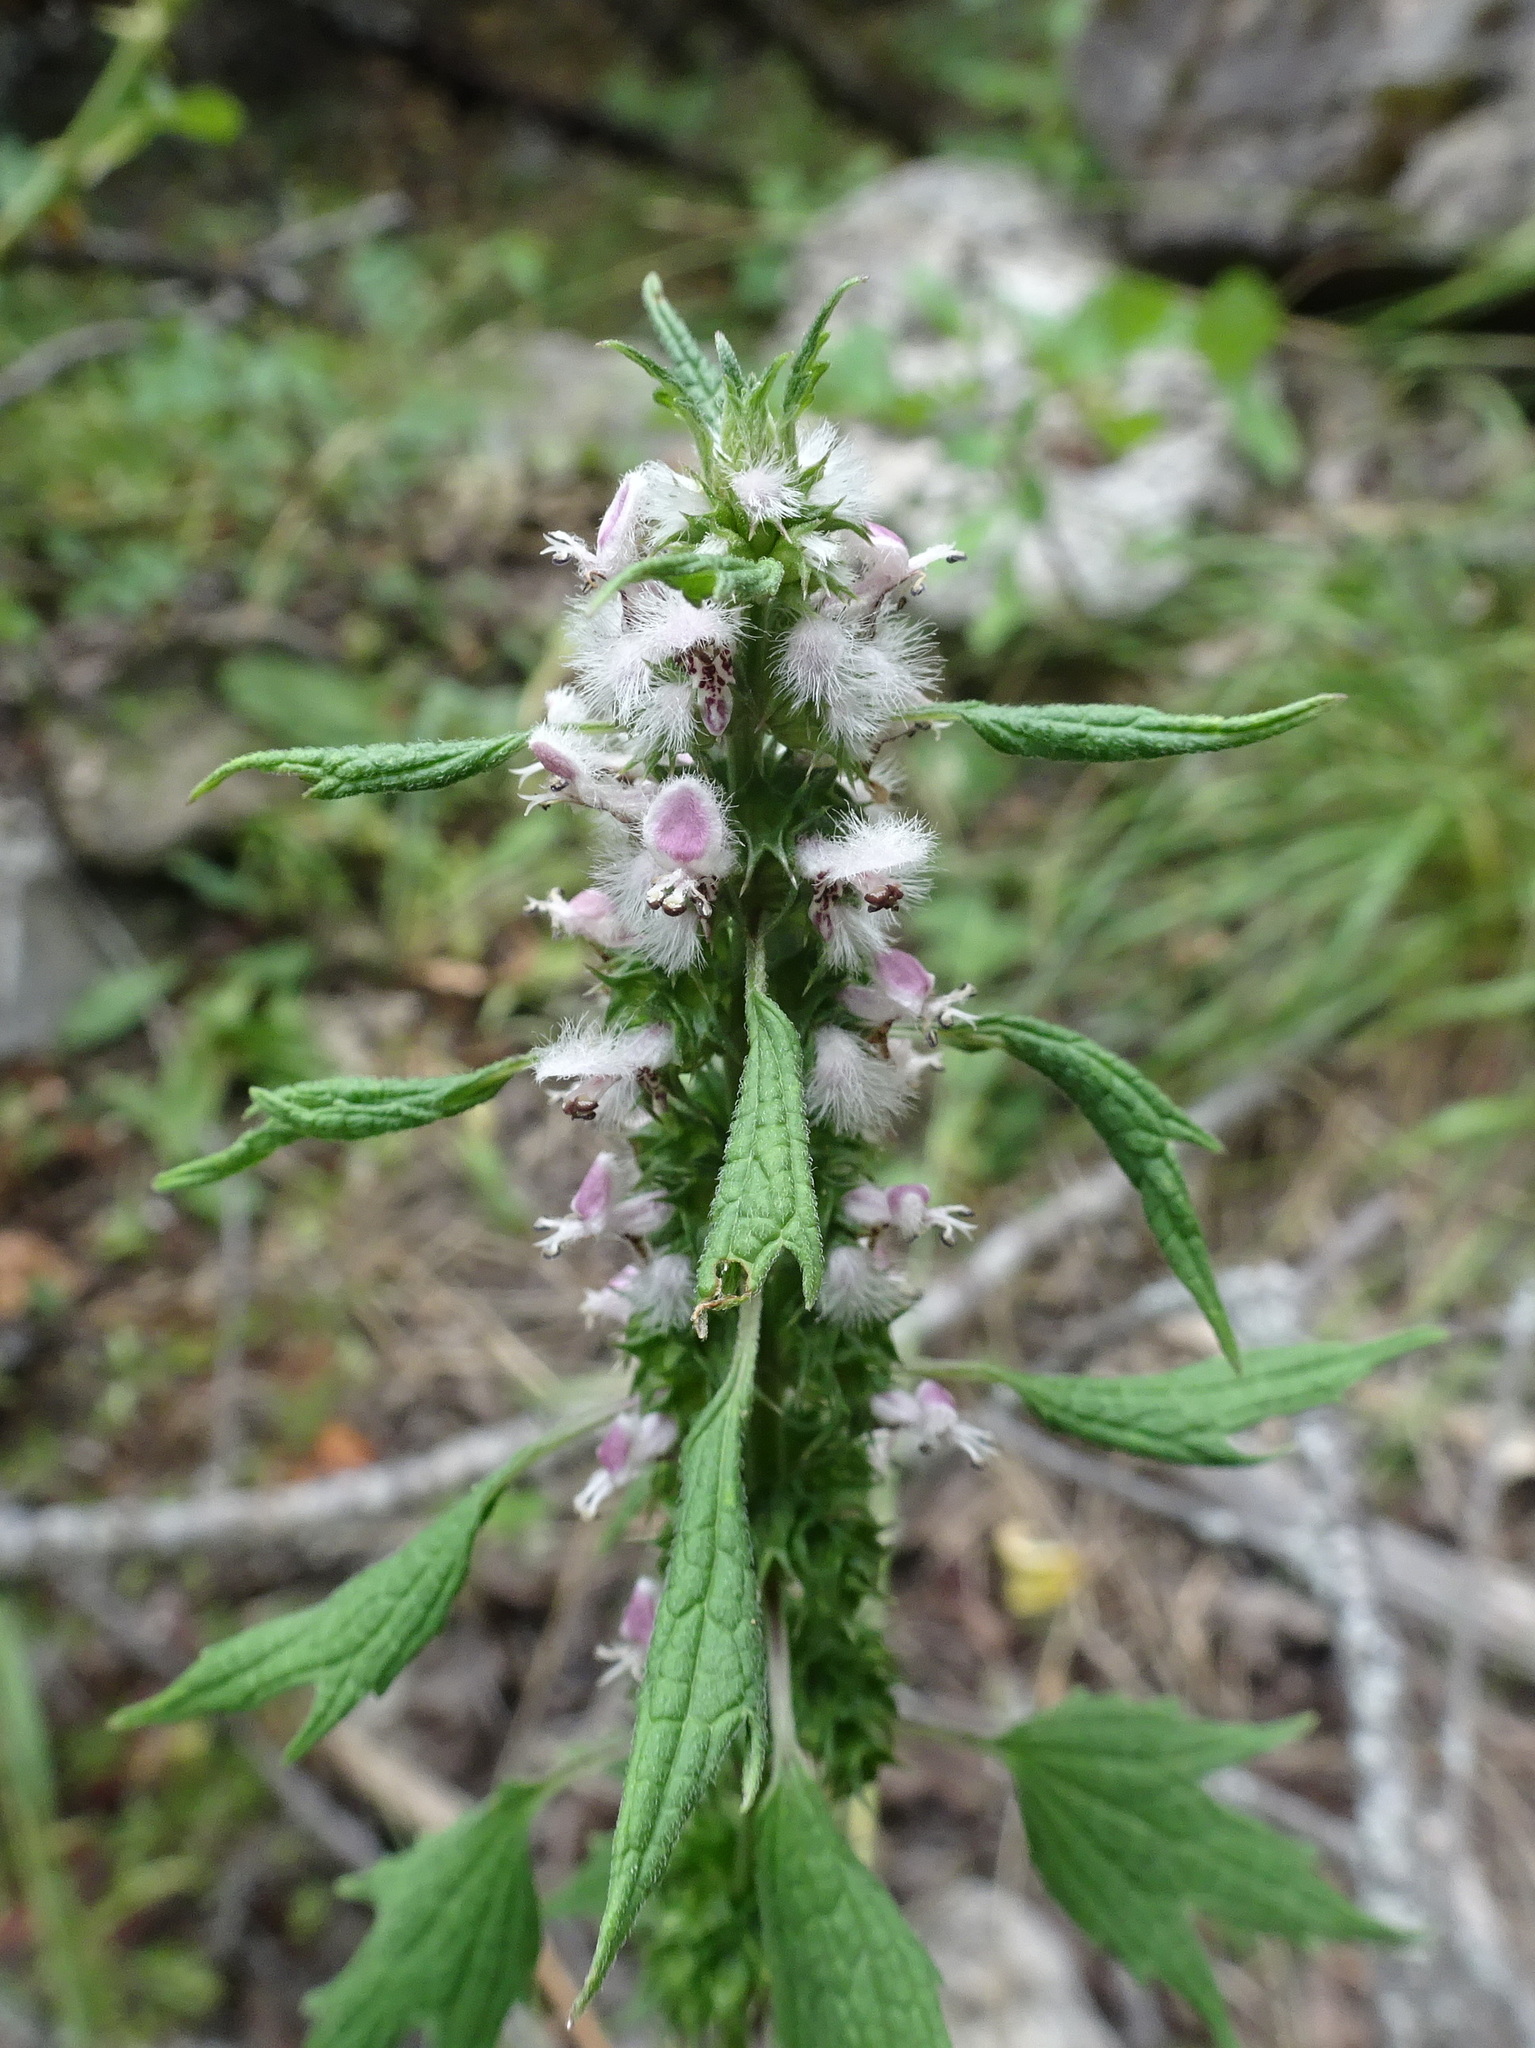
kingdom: Plantae
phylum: Tracheophyta
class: Magnoliopsida
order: Lamiales
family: Lamiaceae
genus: Leonurus
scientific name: Leonurus cardiaca
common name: Motherwort
